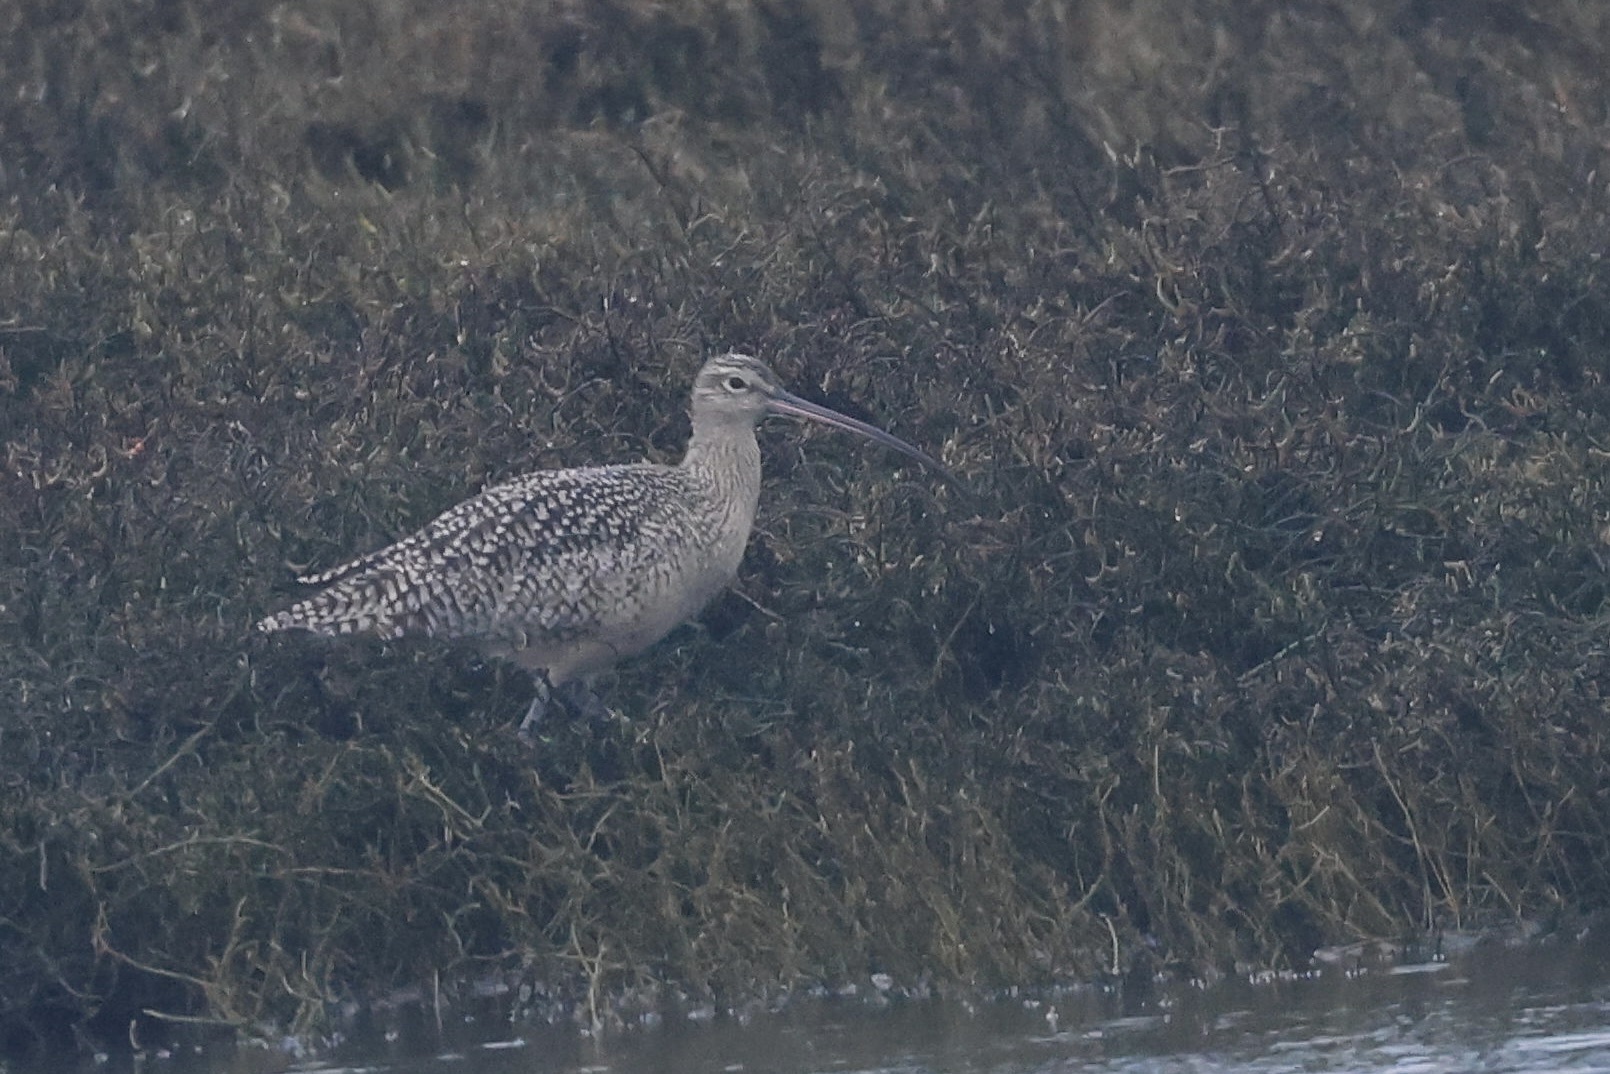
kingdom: Animalia
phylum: Chordata
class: Aves
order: Charadriiformes
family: Scolopacidae
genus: Numenius
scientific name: Numenius americanus
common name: Long-billed curlew
